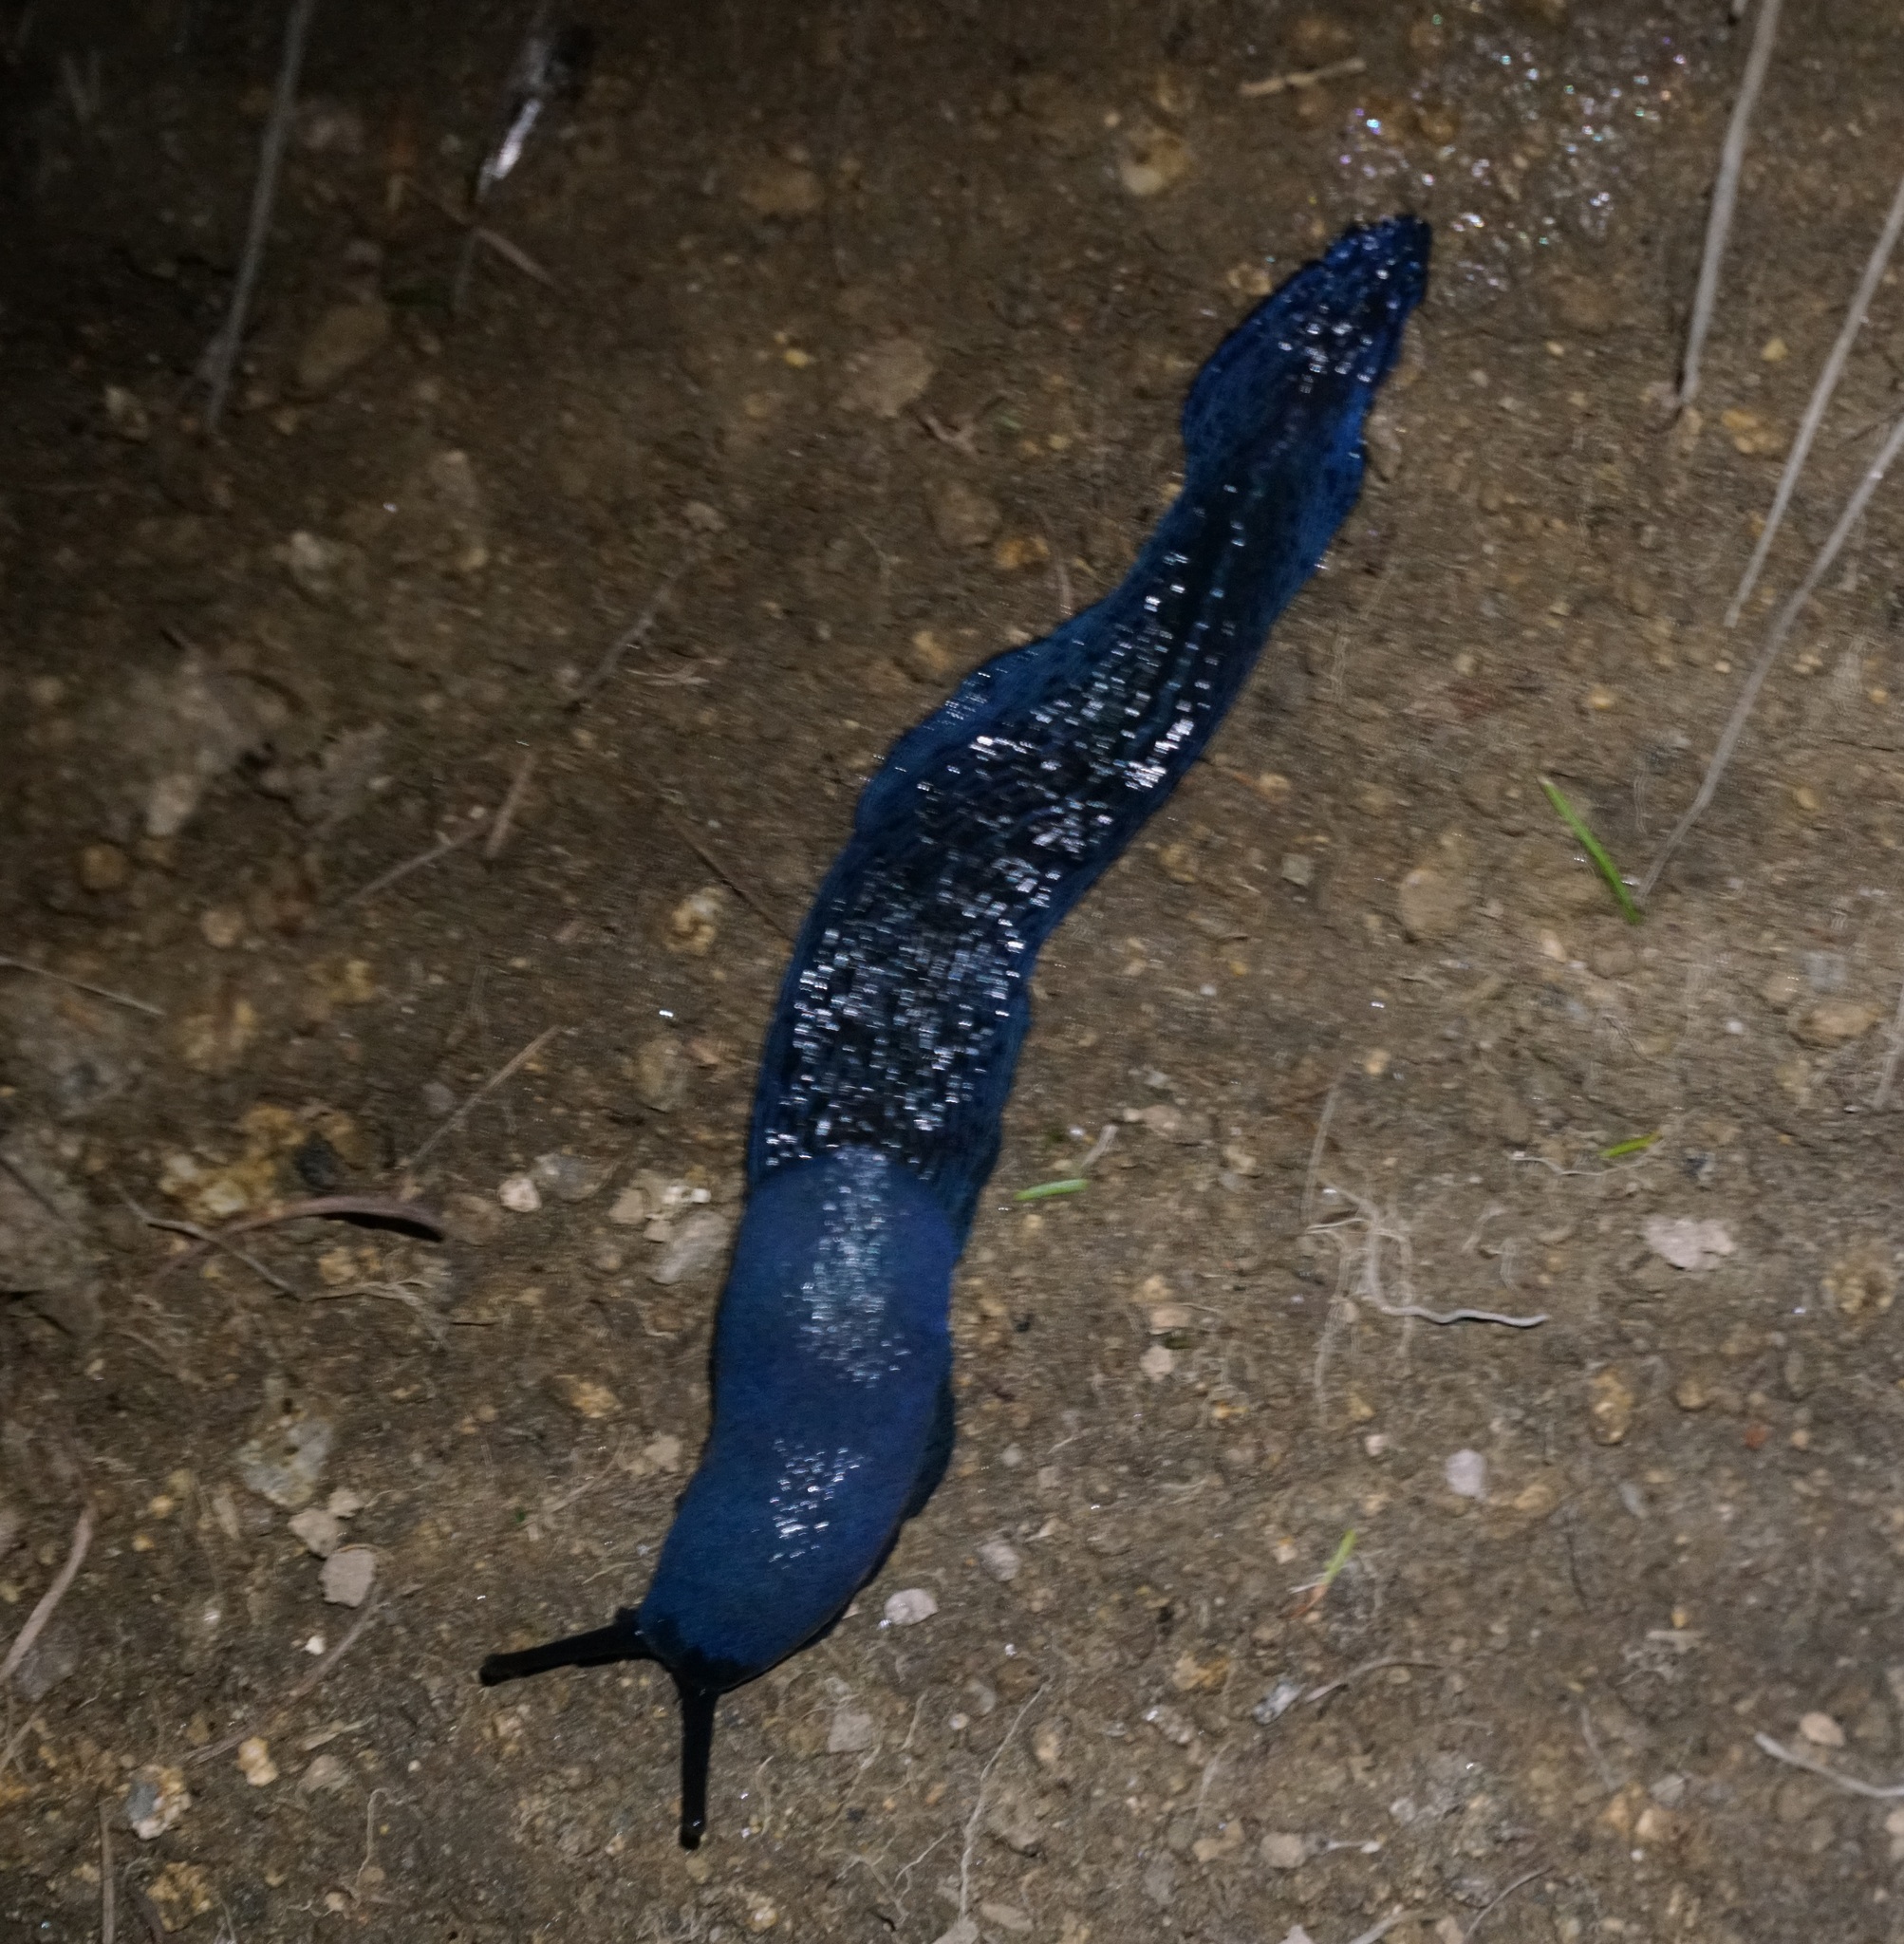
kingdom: Animalia
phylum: Mollusca
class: Gastropoda
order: Stylommatophora
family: Limacidae
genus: Bielzia
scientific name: Bielzia coerulans
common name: Carpathian blue slug
